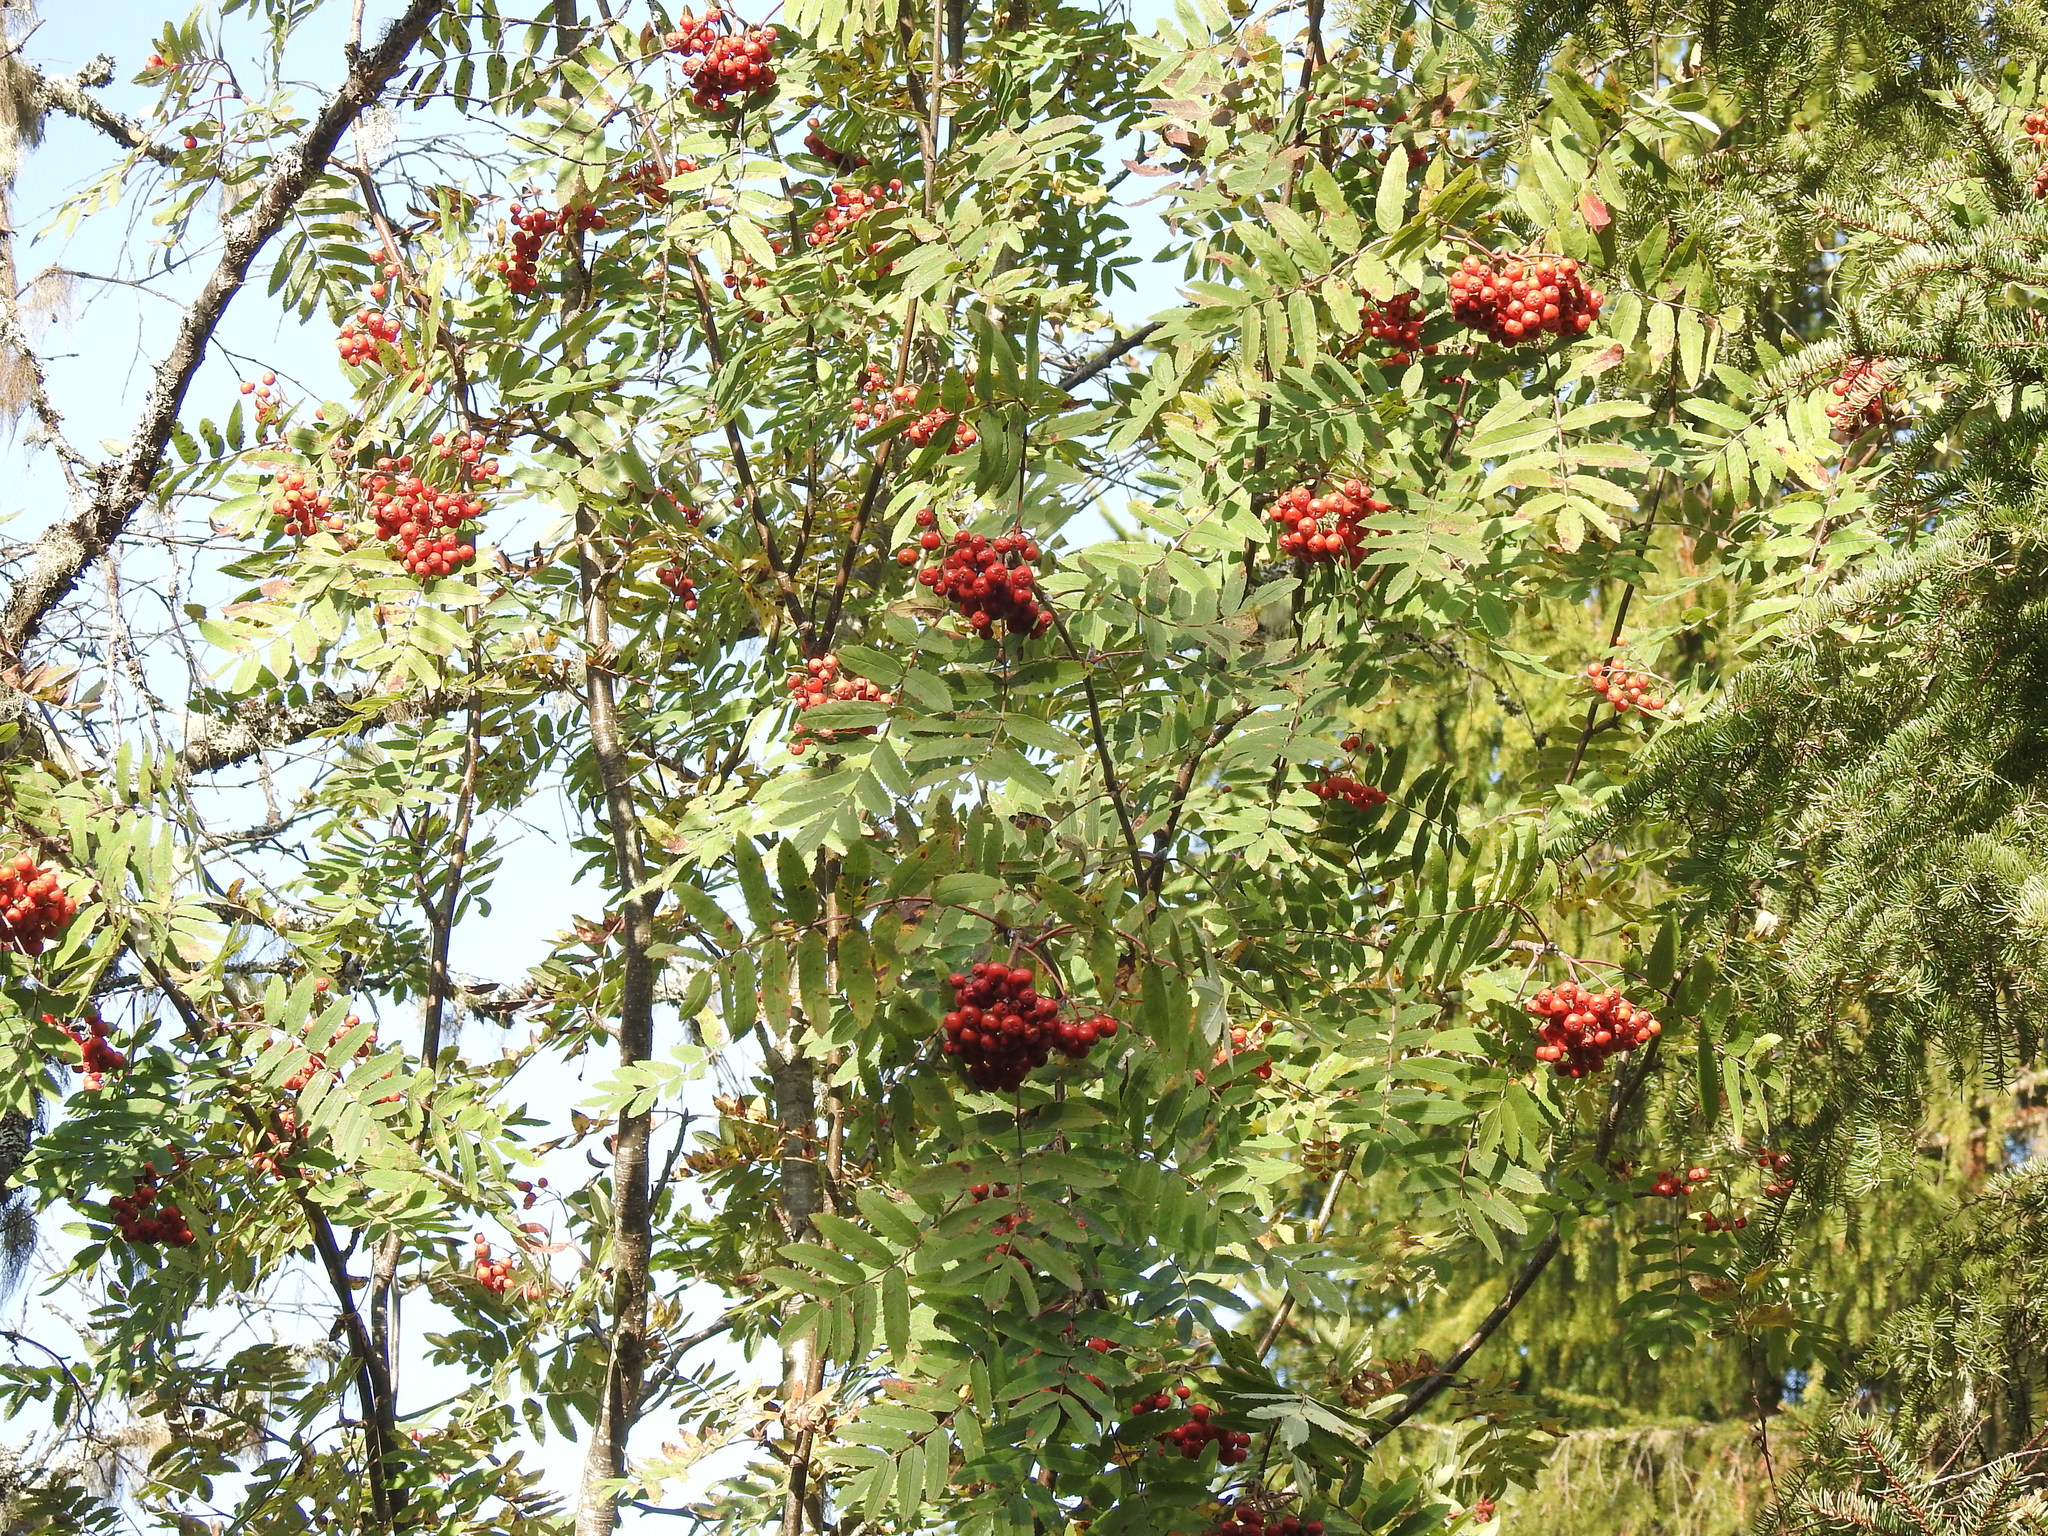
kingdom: Plantae
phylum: Tracheophyta
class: Magnoliopsida
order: Rosales
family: Rosaceae
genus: Sorbus
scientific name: Sorbus aucuparia
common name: Rowan
